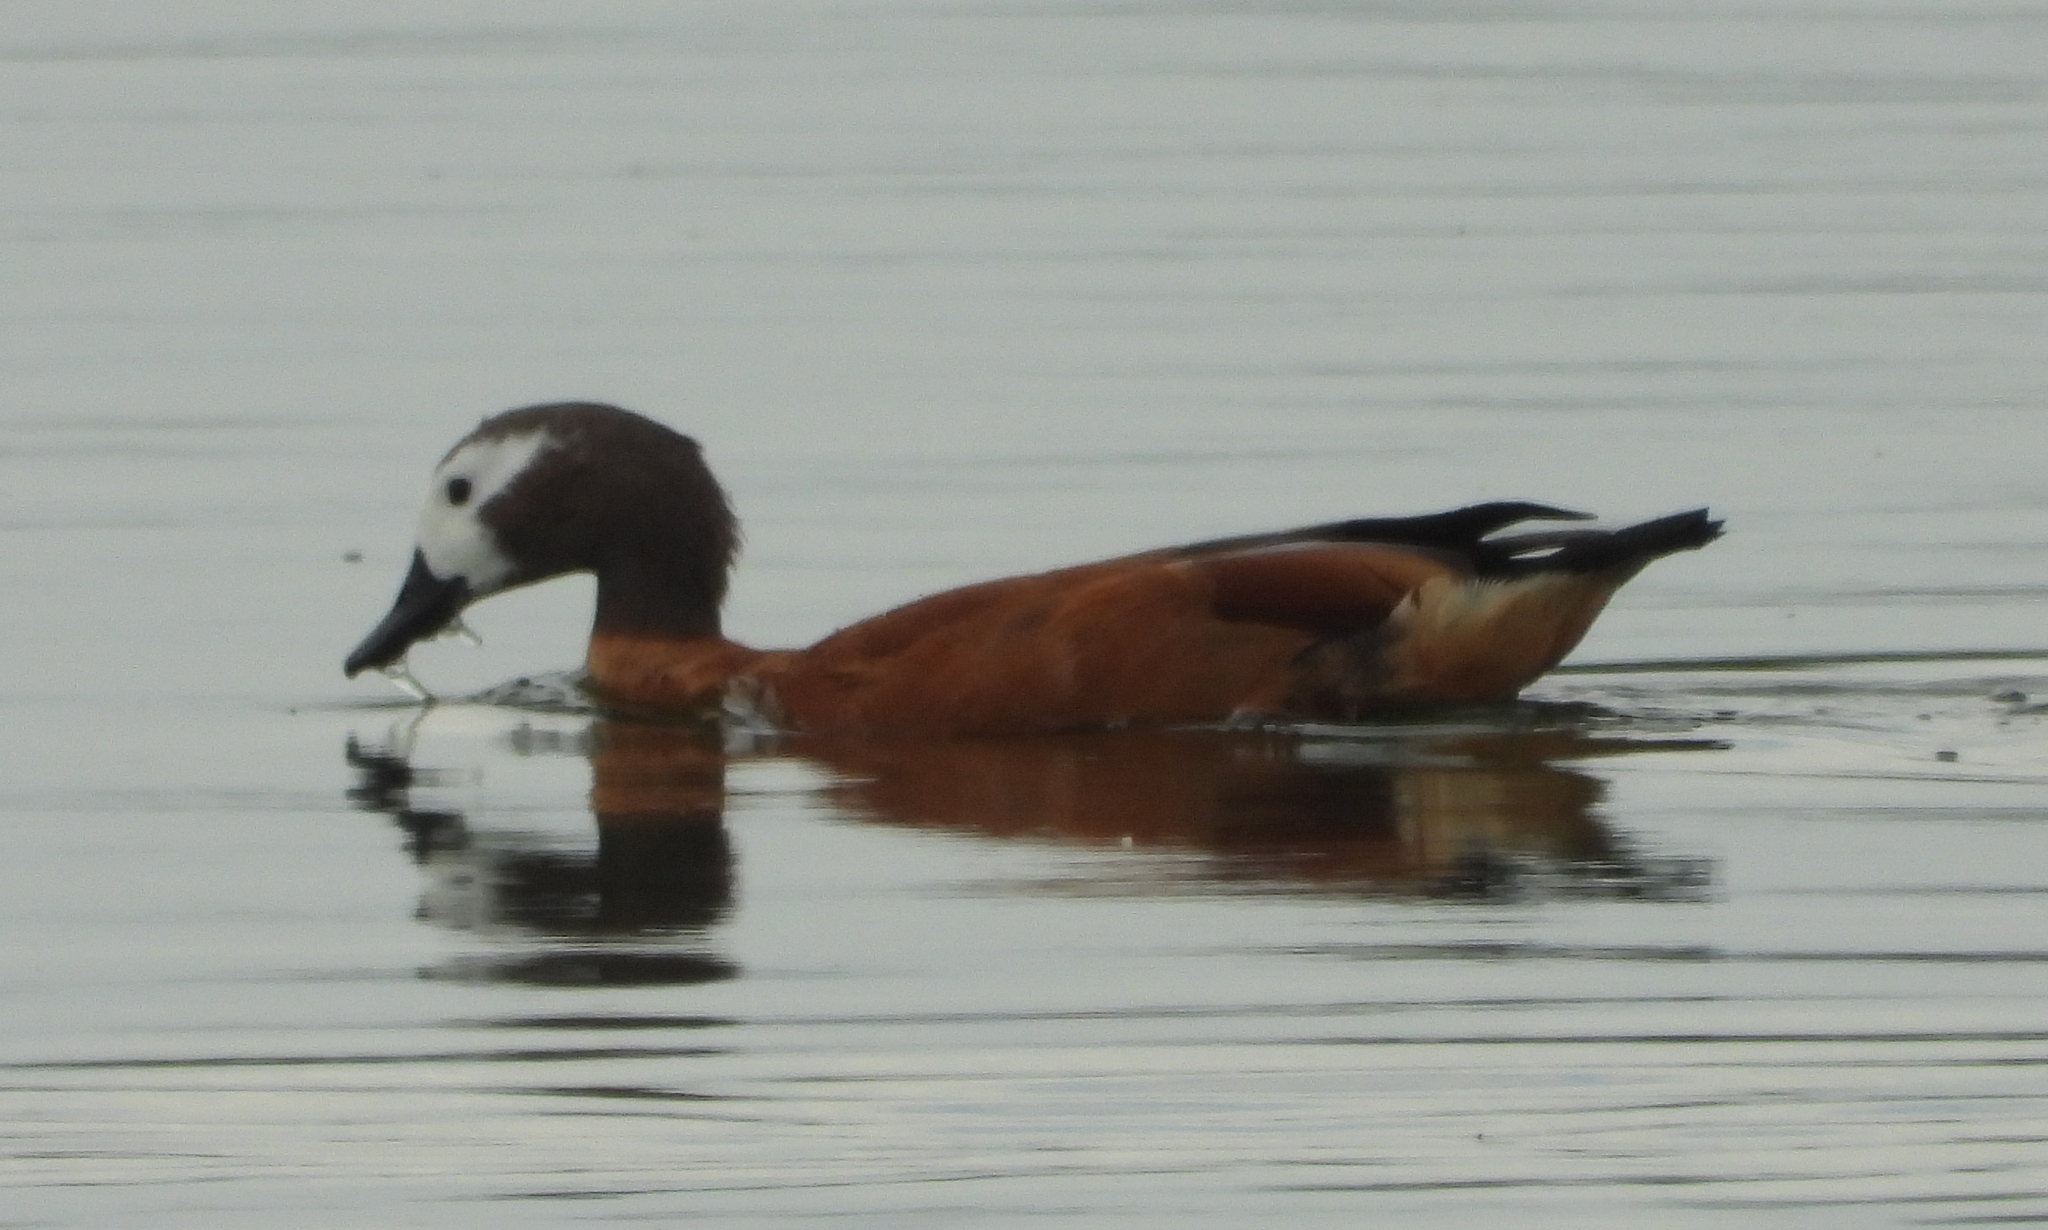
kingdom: Animalia
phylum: Chordata
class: Aves
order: Anseriformes
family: Anatidae
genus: Tadorna
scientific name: Tadorna cana
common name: South african shelduck
